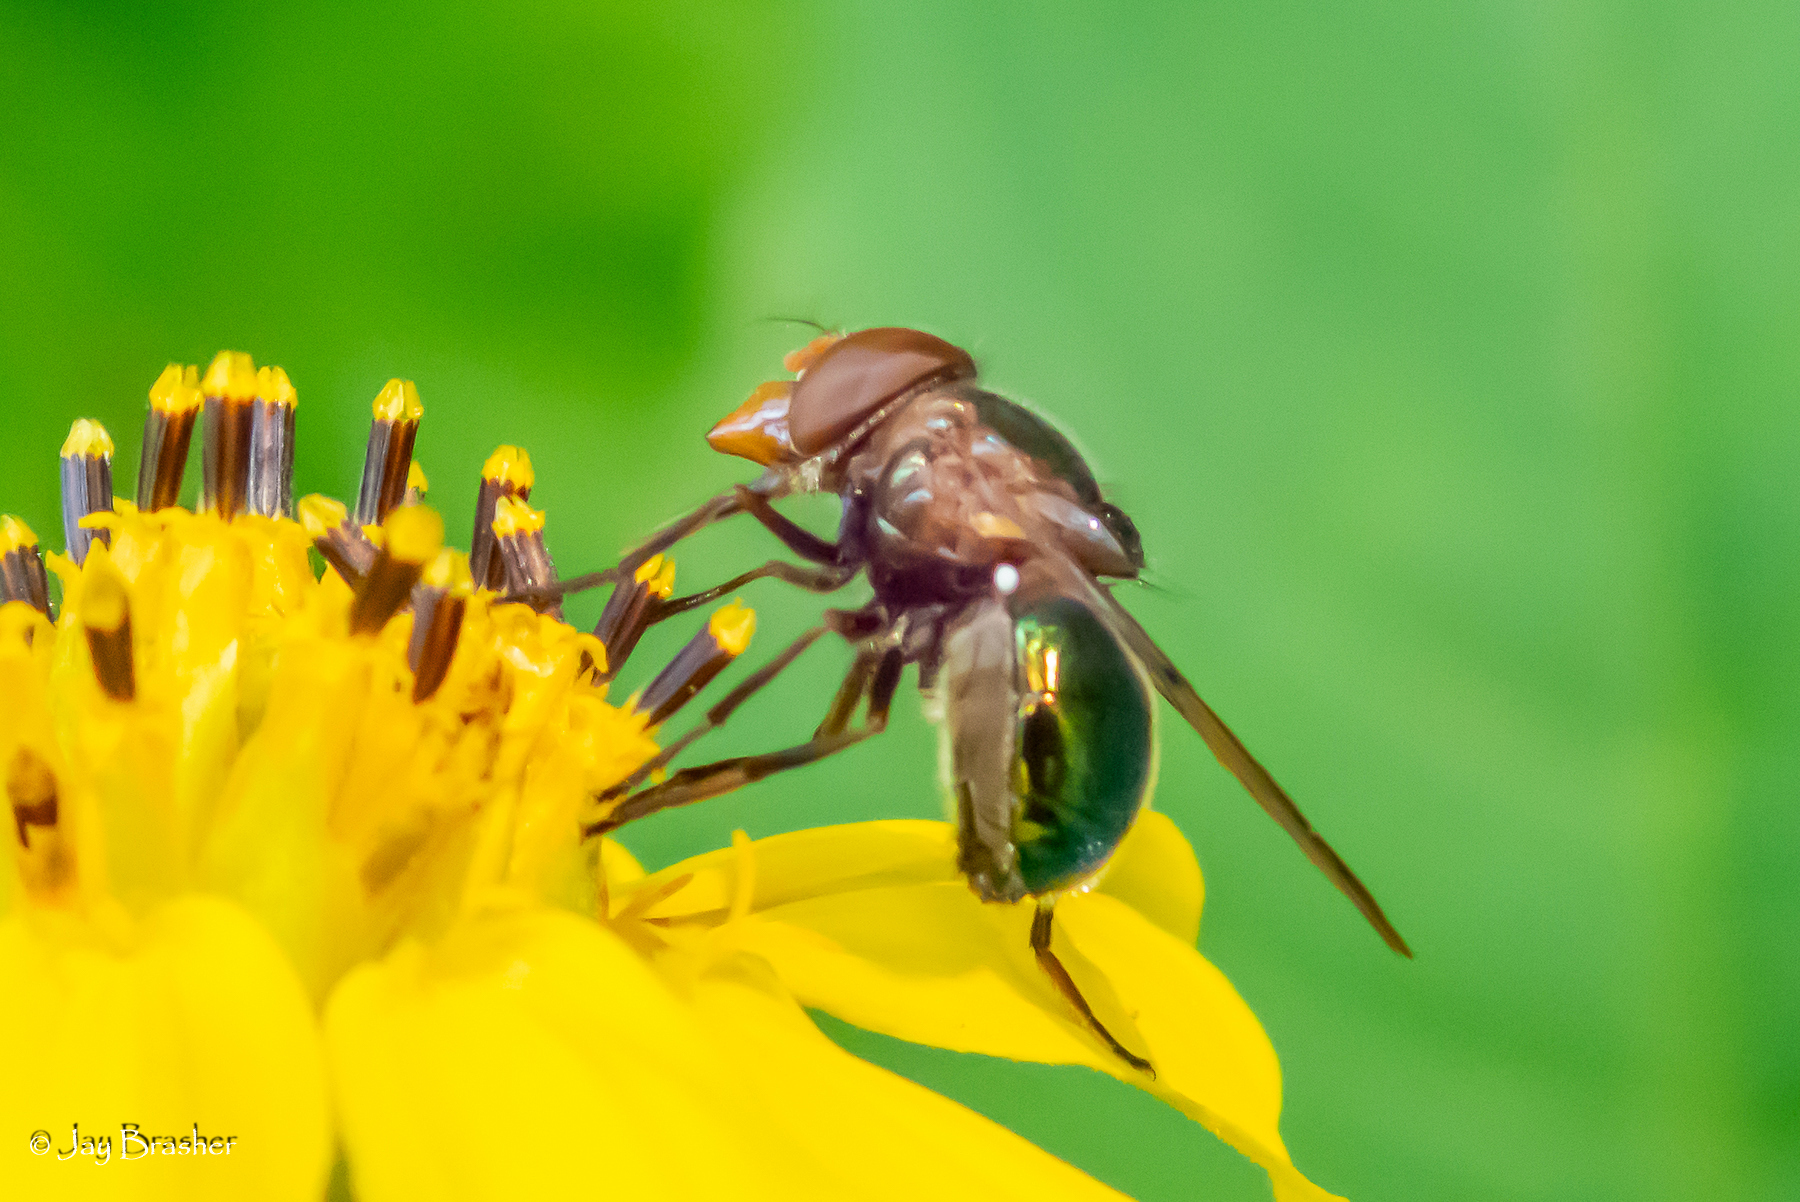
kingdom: Animalia
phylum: Arthropoda
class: Insecta
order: Diptera
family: Syrphidae
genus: Copestylum
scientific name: Copestylum vesicularium
